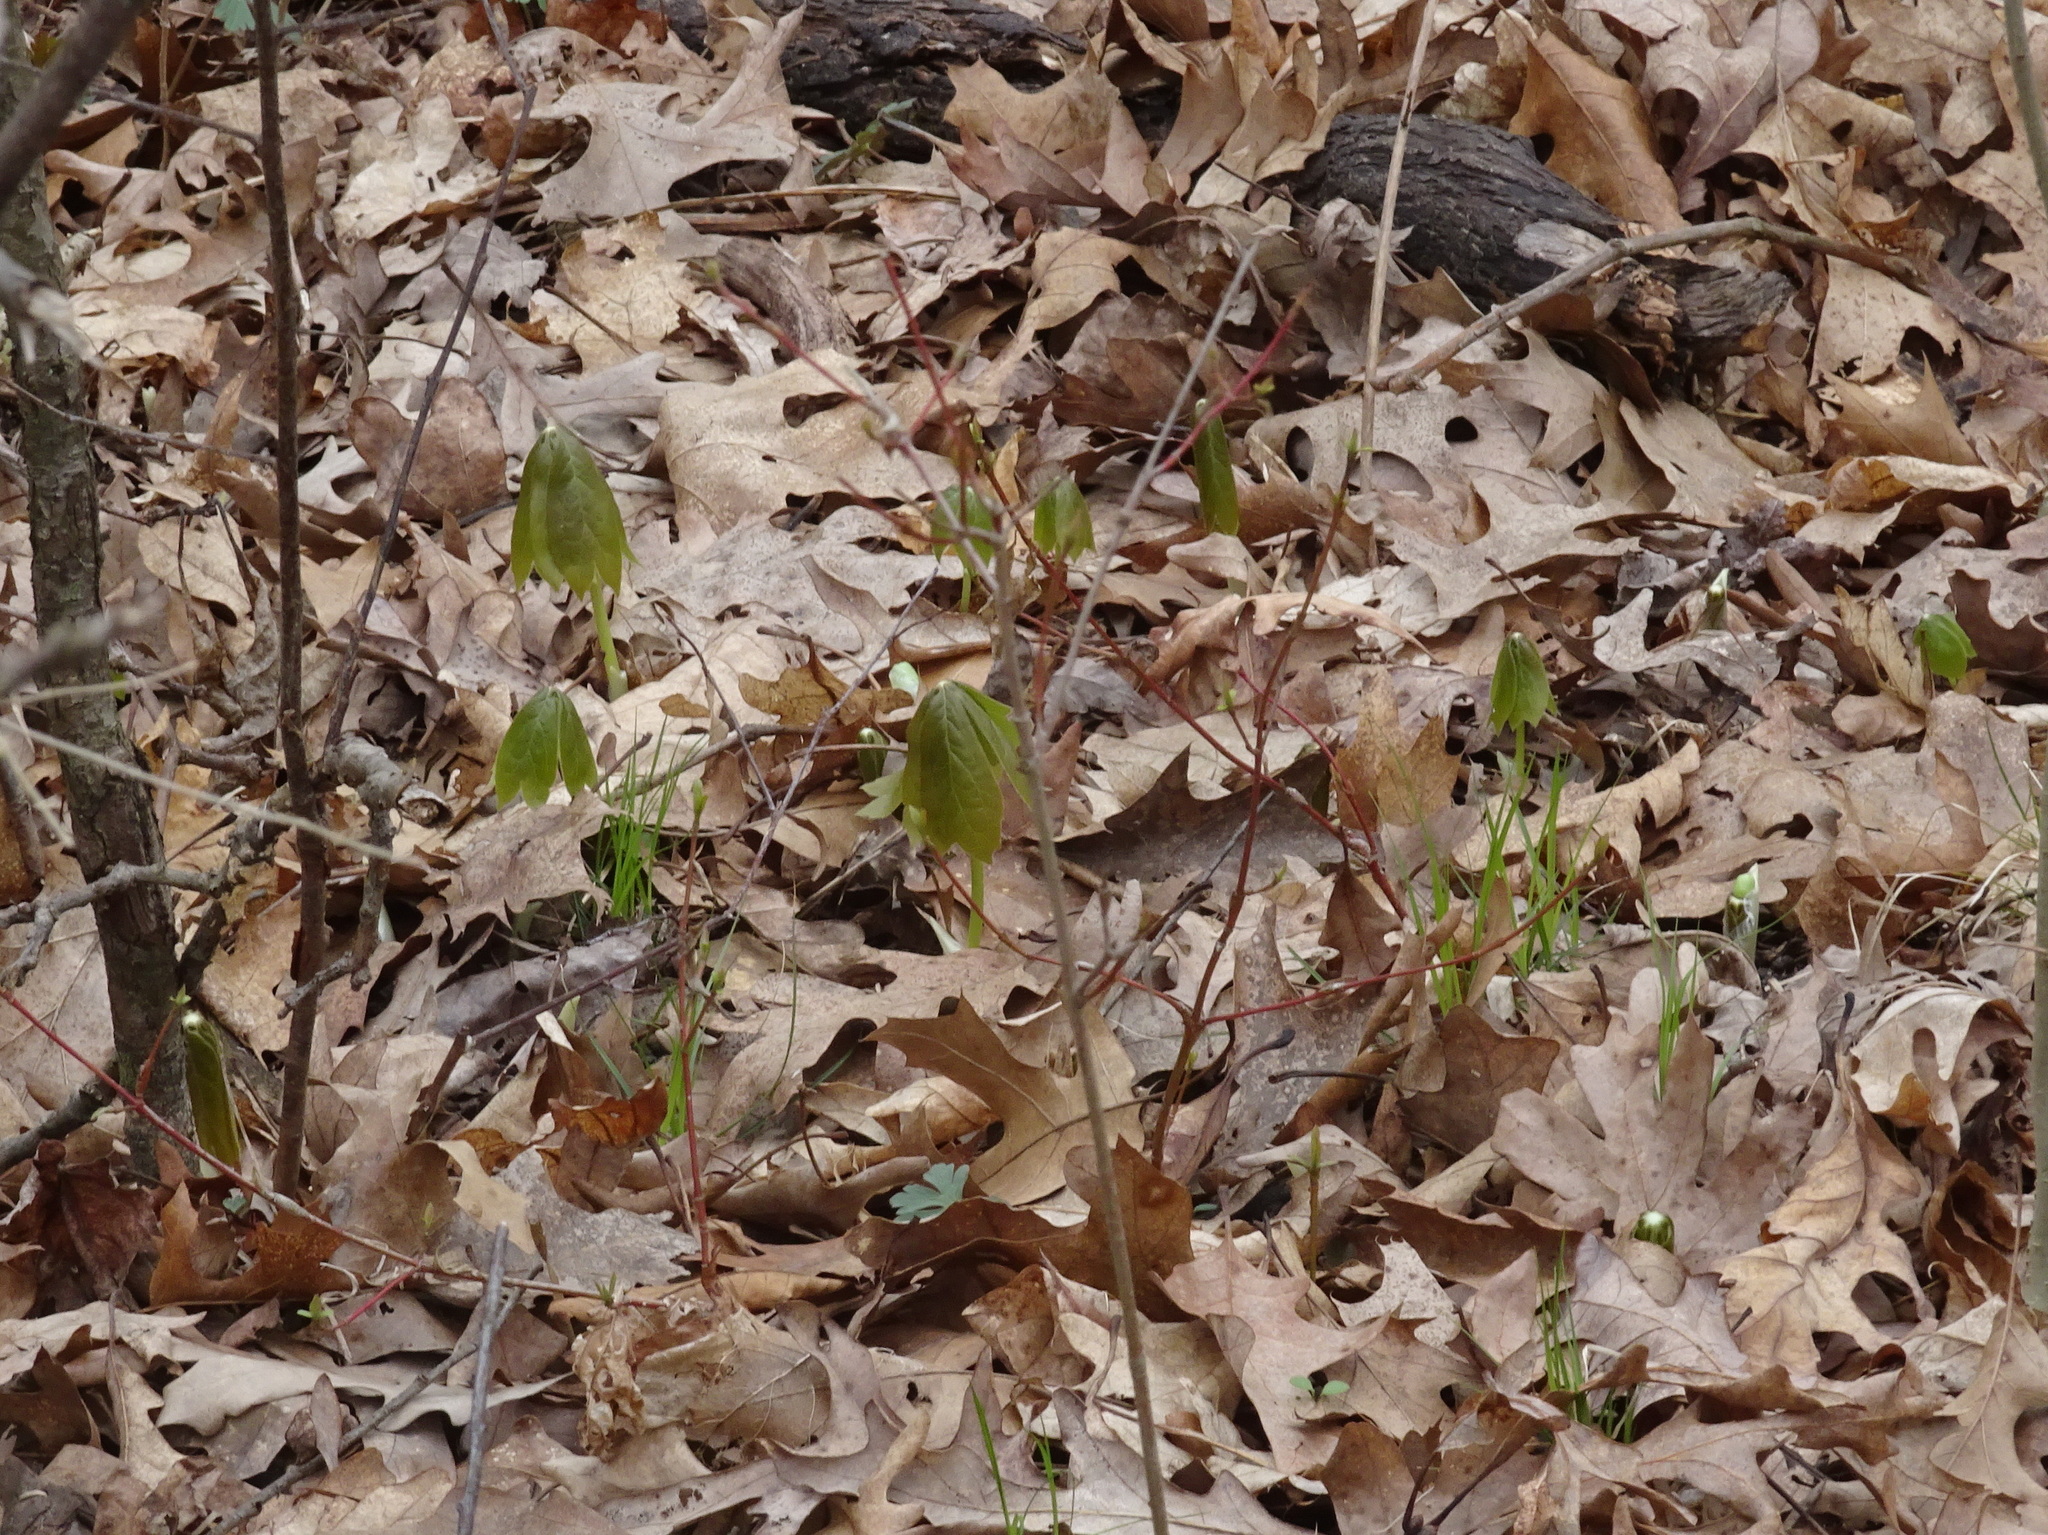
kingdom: Plantae
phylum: Tracheophyta
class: Magnoliopsida
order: Ranunculales
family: Berberidaceae
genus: Podophyllum
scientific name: Podophyllum peltatum
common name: Wild mandrake
